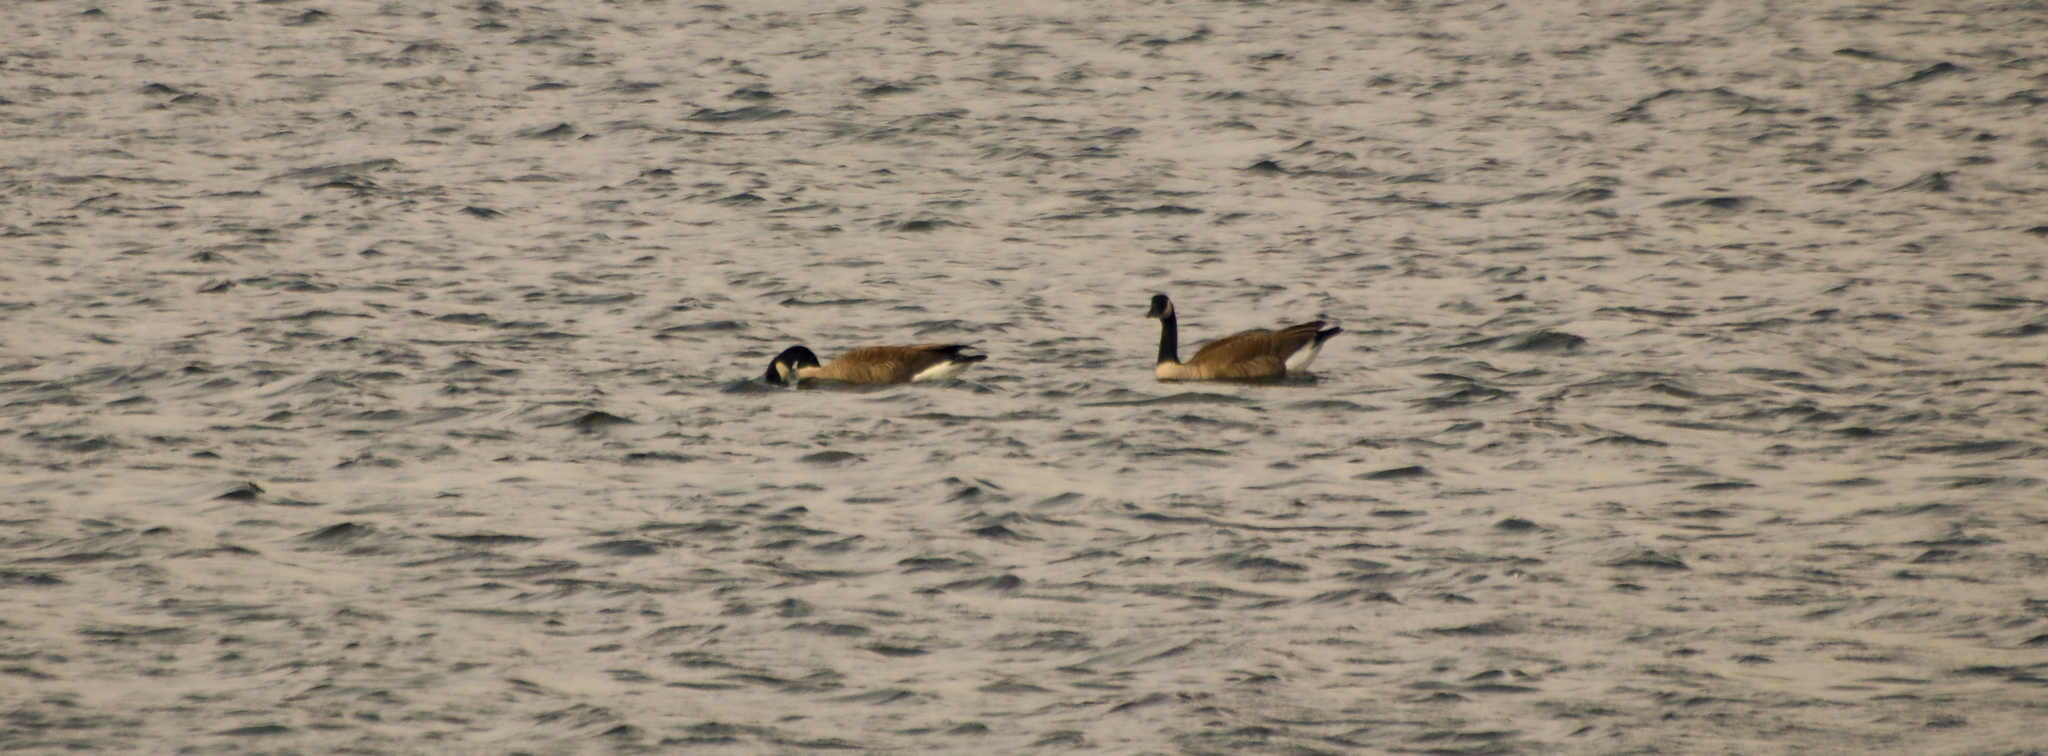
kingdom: Animalia
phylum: Chordata
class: Aves
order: Anseriformes
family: Anatidae
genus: Branta
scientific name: Branta canadensis
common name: Canada goose
